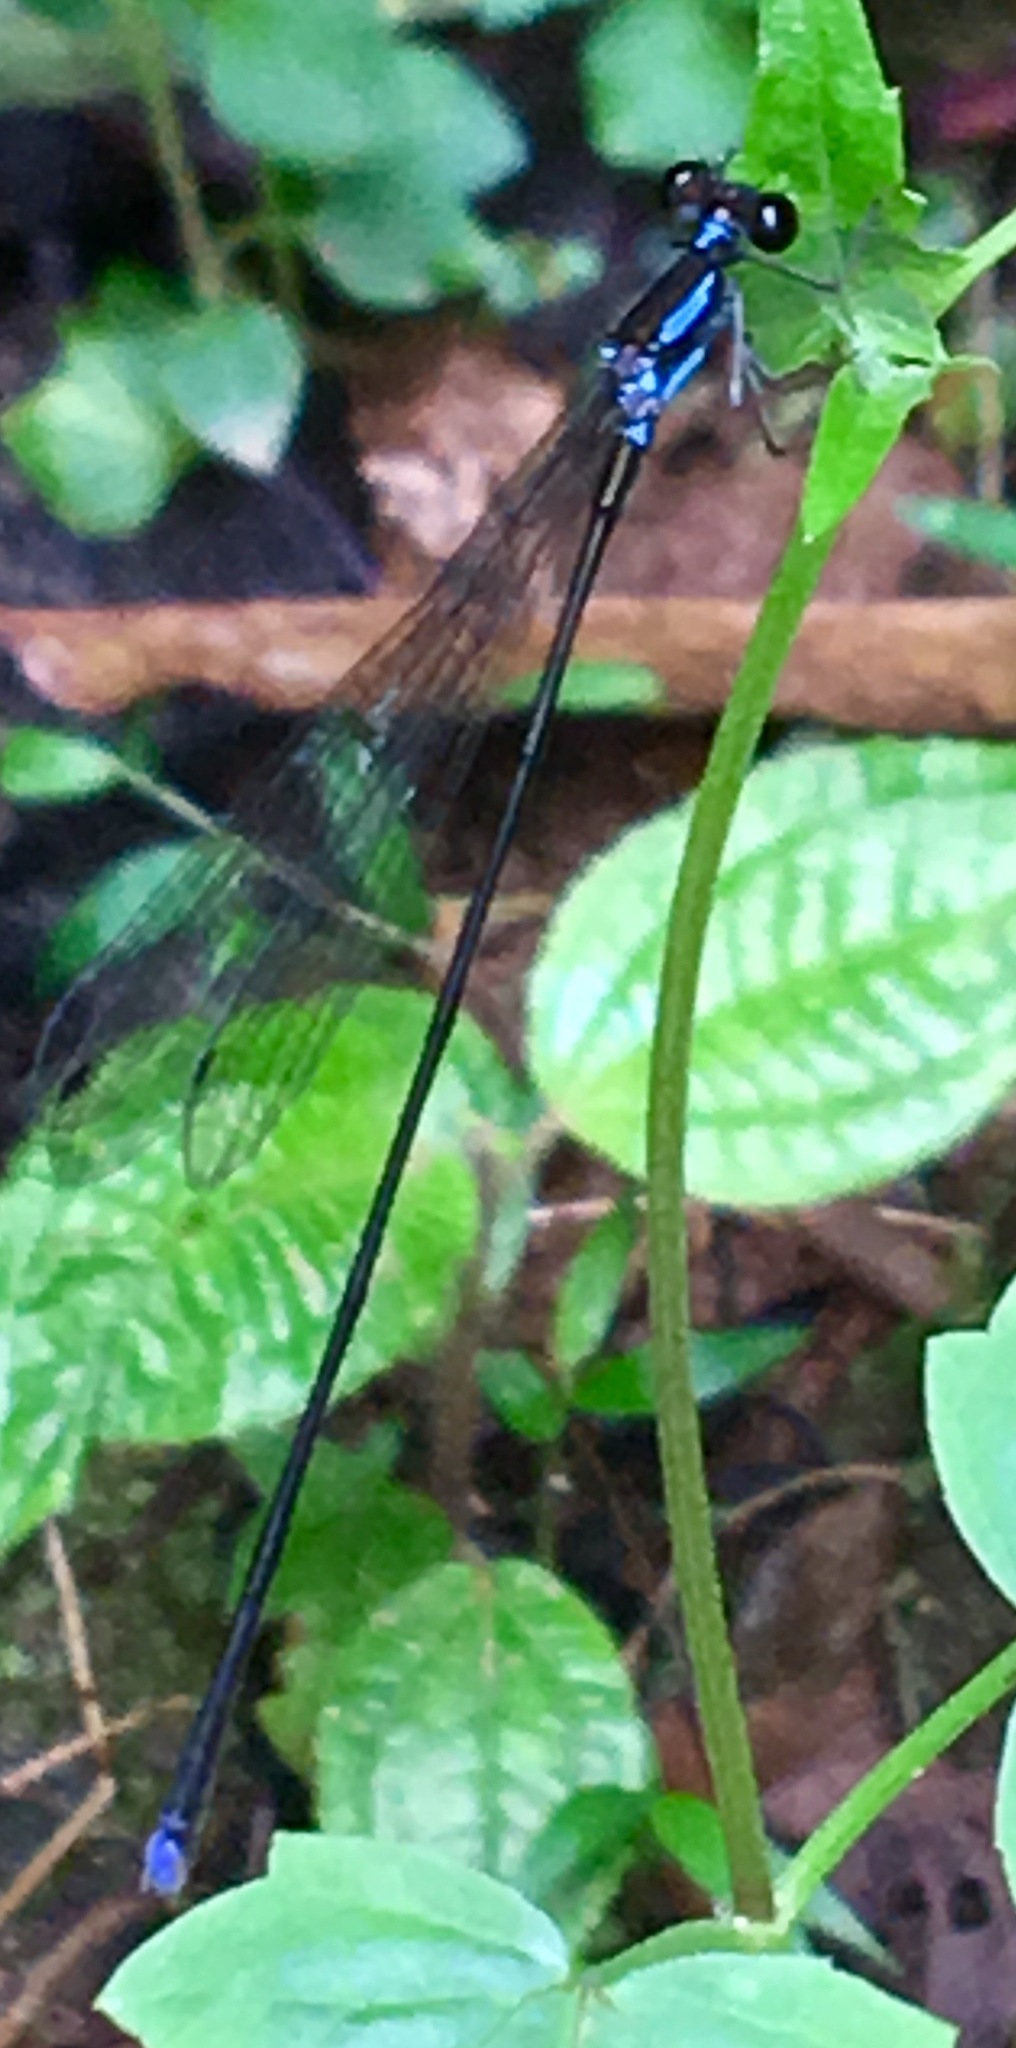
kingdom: Animalia
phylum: Arthropoda
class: Insecta
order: Odonata
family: Coenagrionidae
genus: Nesobasis
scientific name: Nesobasis leveri
